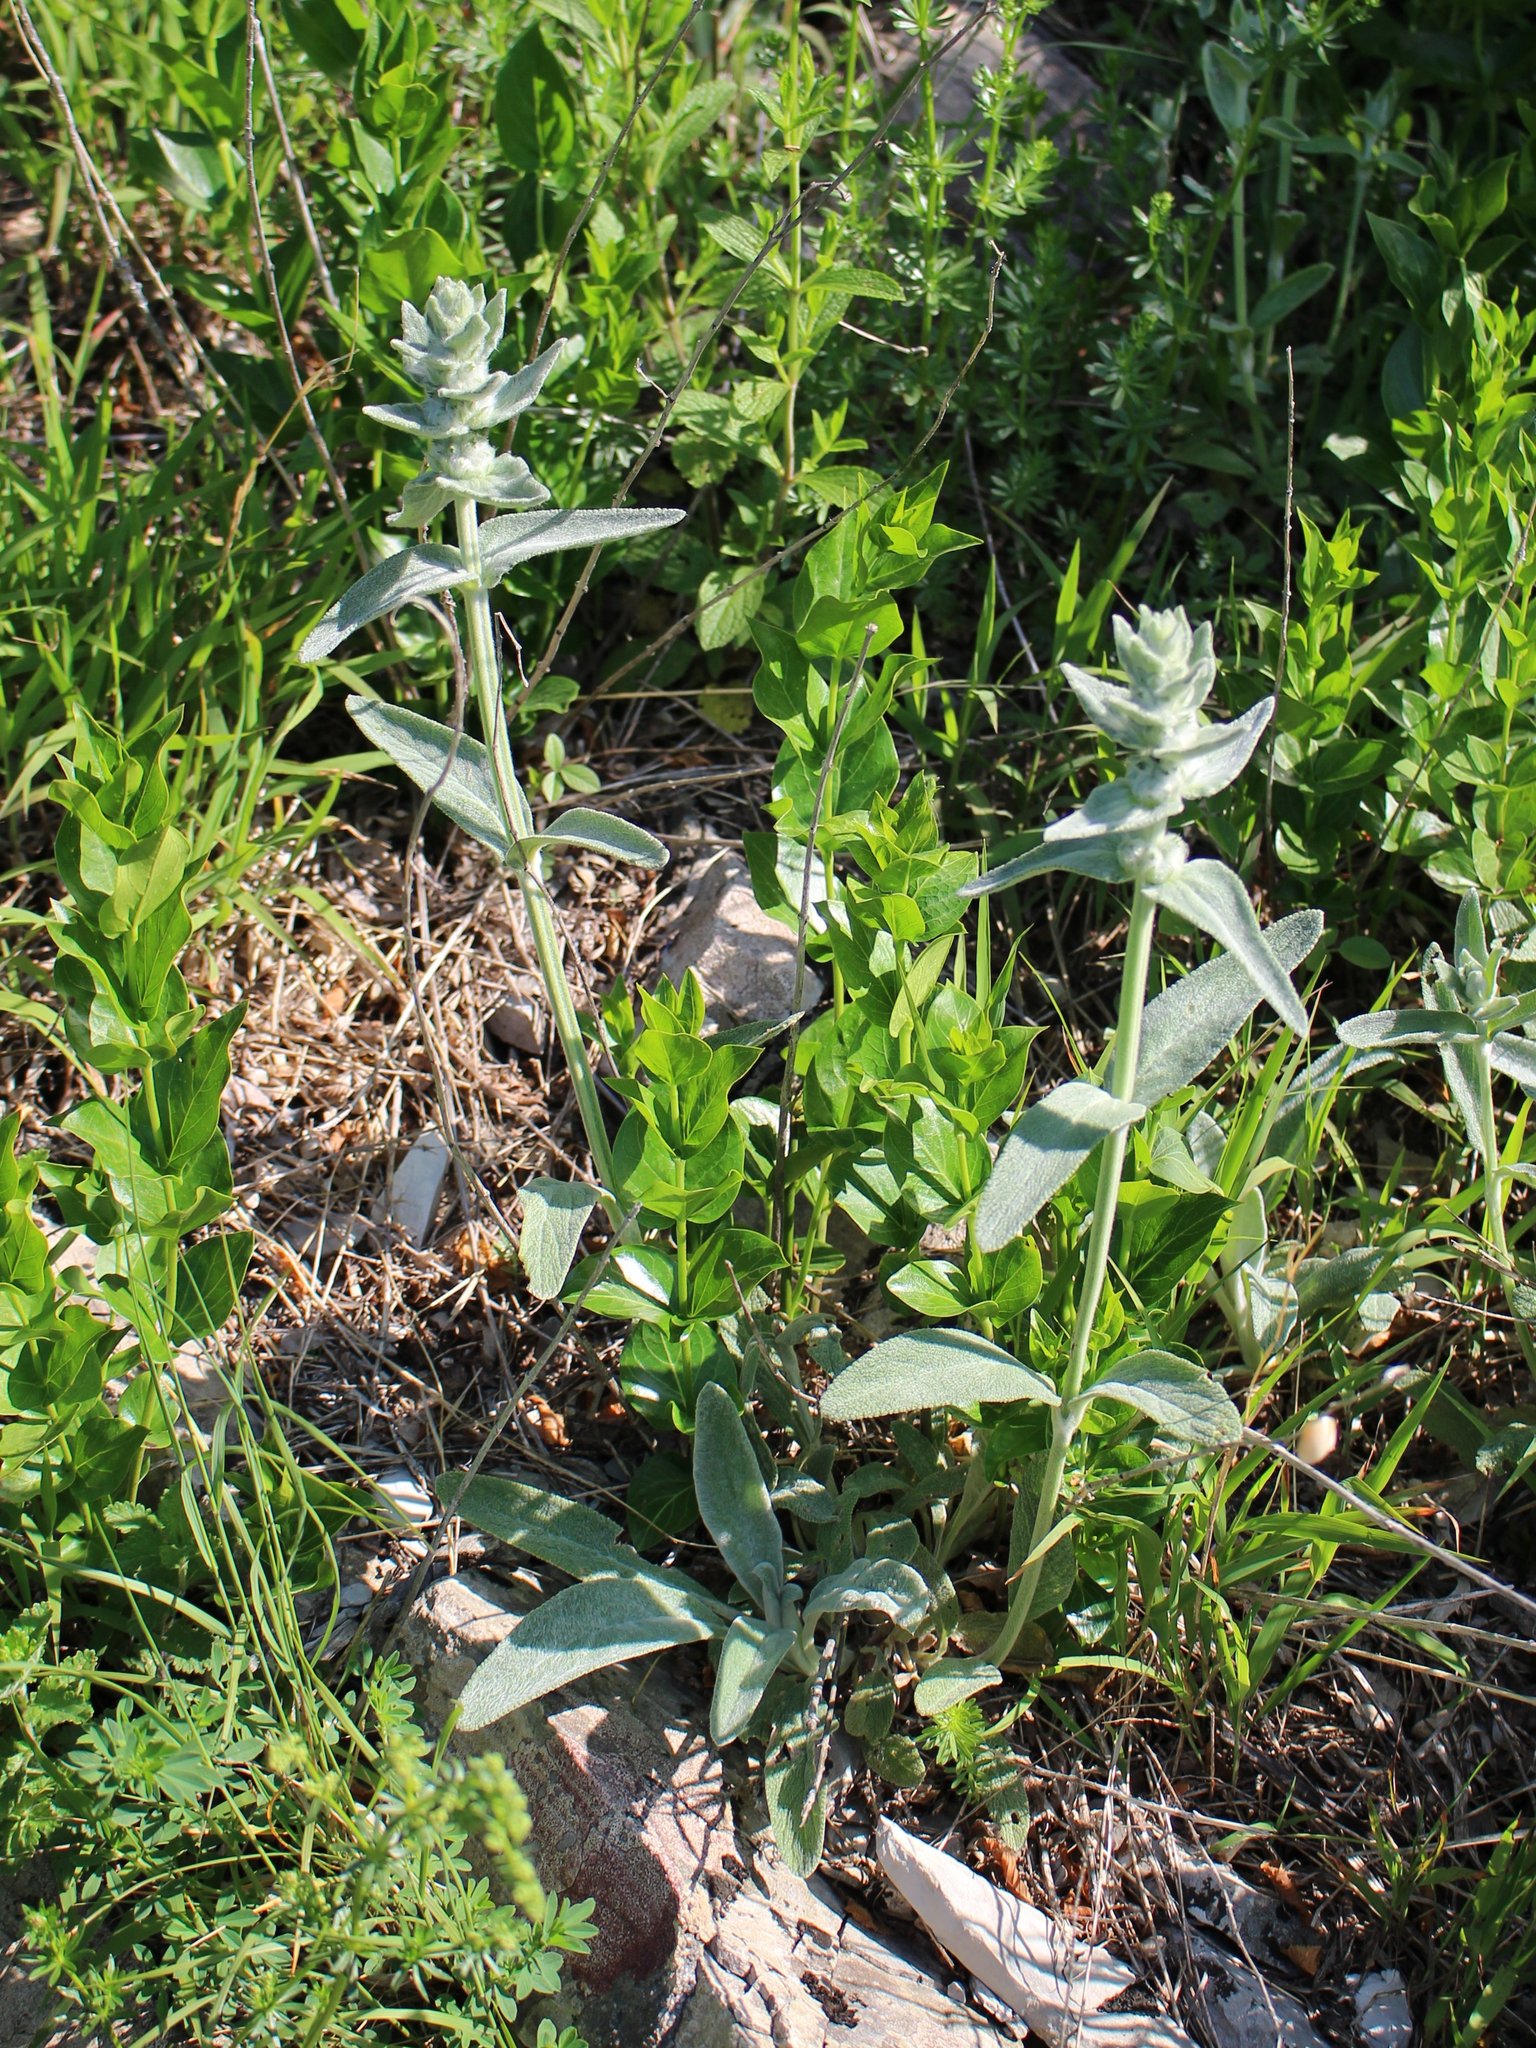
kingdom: Plantae
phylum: Tracheophyta
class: Magnoliopsida
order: Lamiales
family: Lamiaceae
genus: Stachys
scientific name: Stachys cretica
